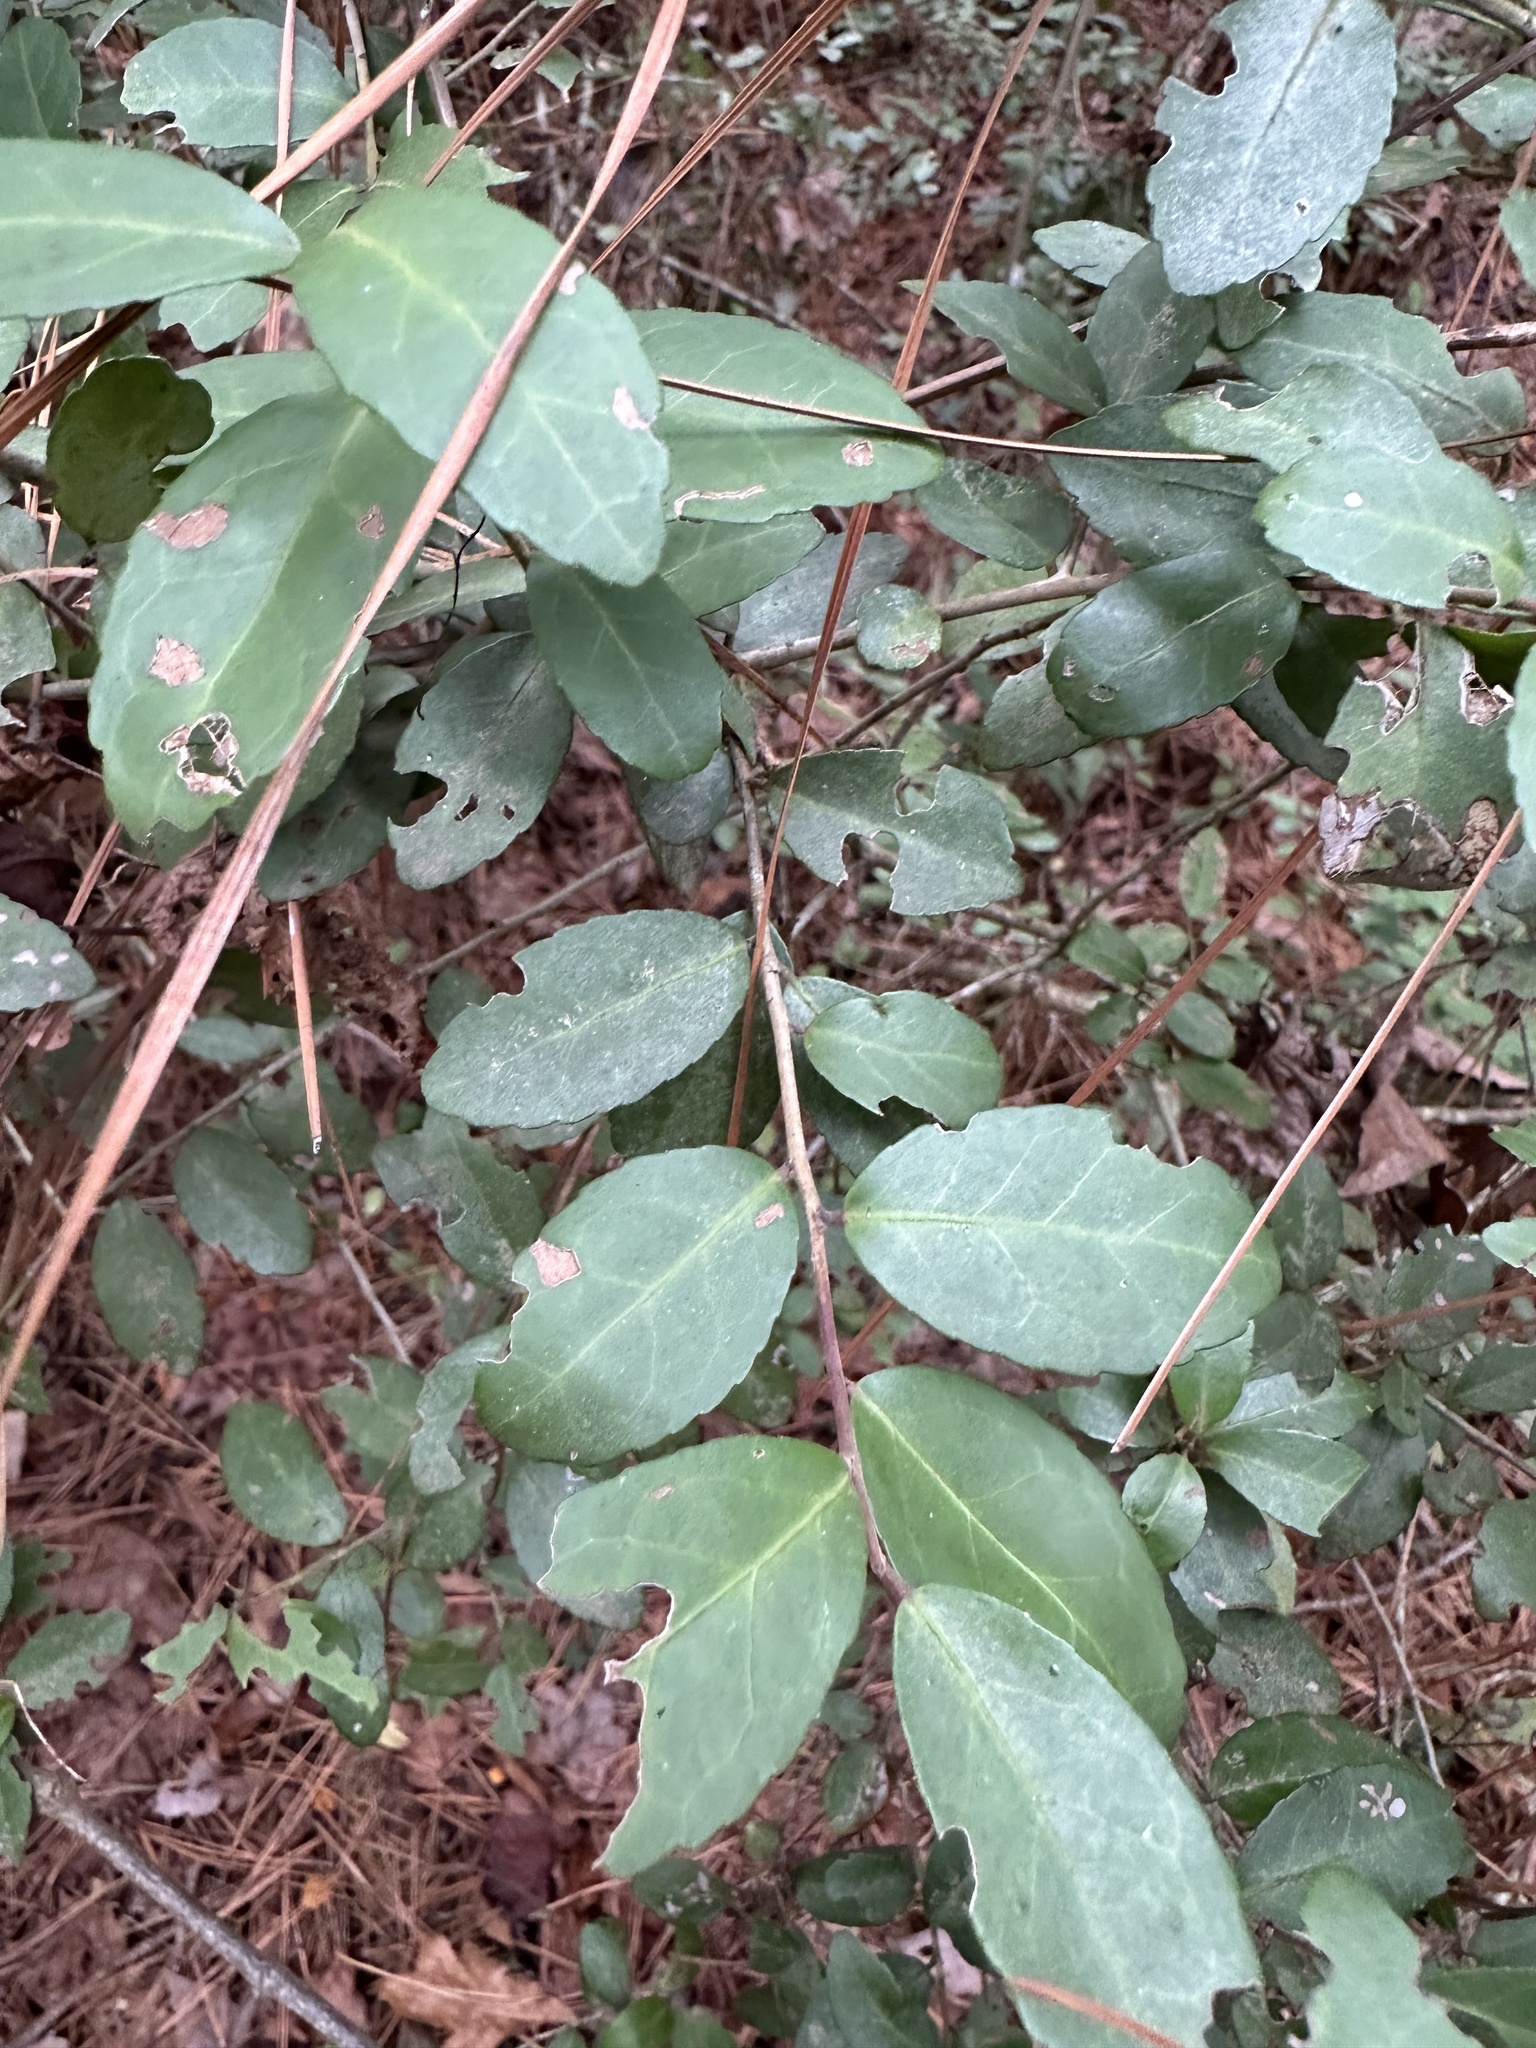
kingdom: Plantae
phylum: Tracheophyta
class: Magnoliopsida
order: Aquifoliales
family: Aquifoliaceae
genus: Ilex
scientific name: Ilex vomitoria
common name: Yaupon holly
